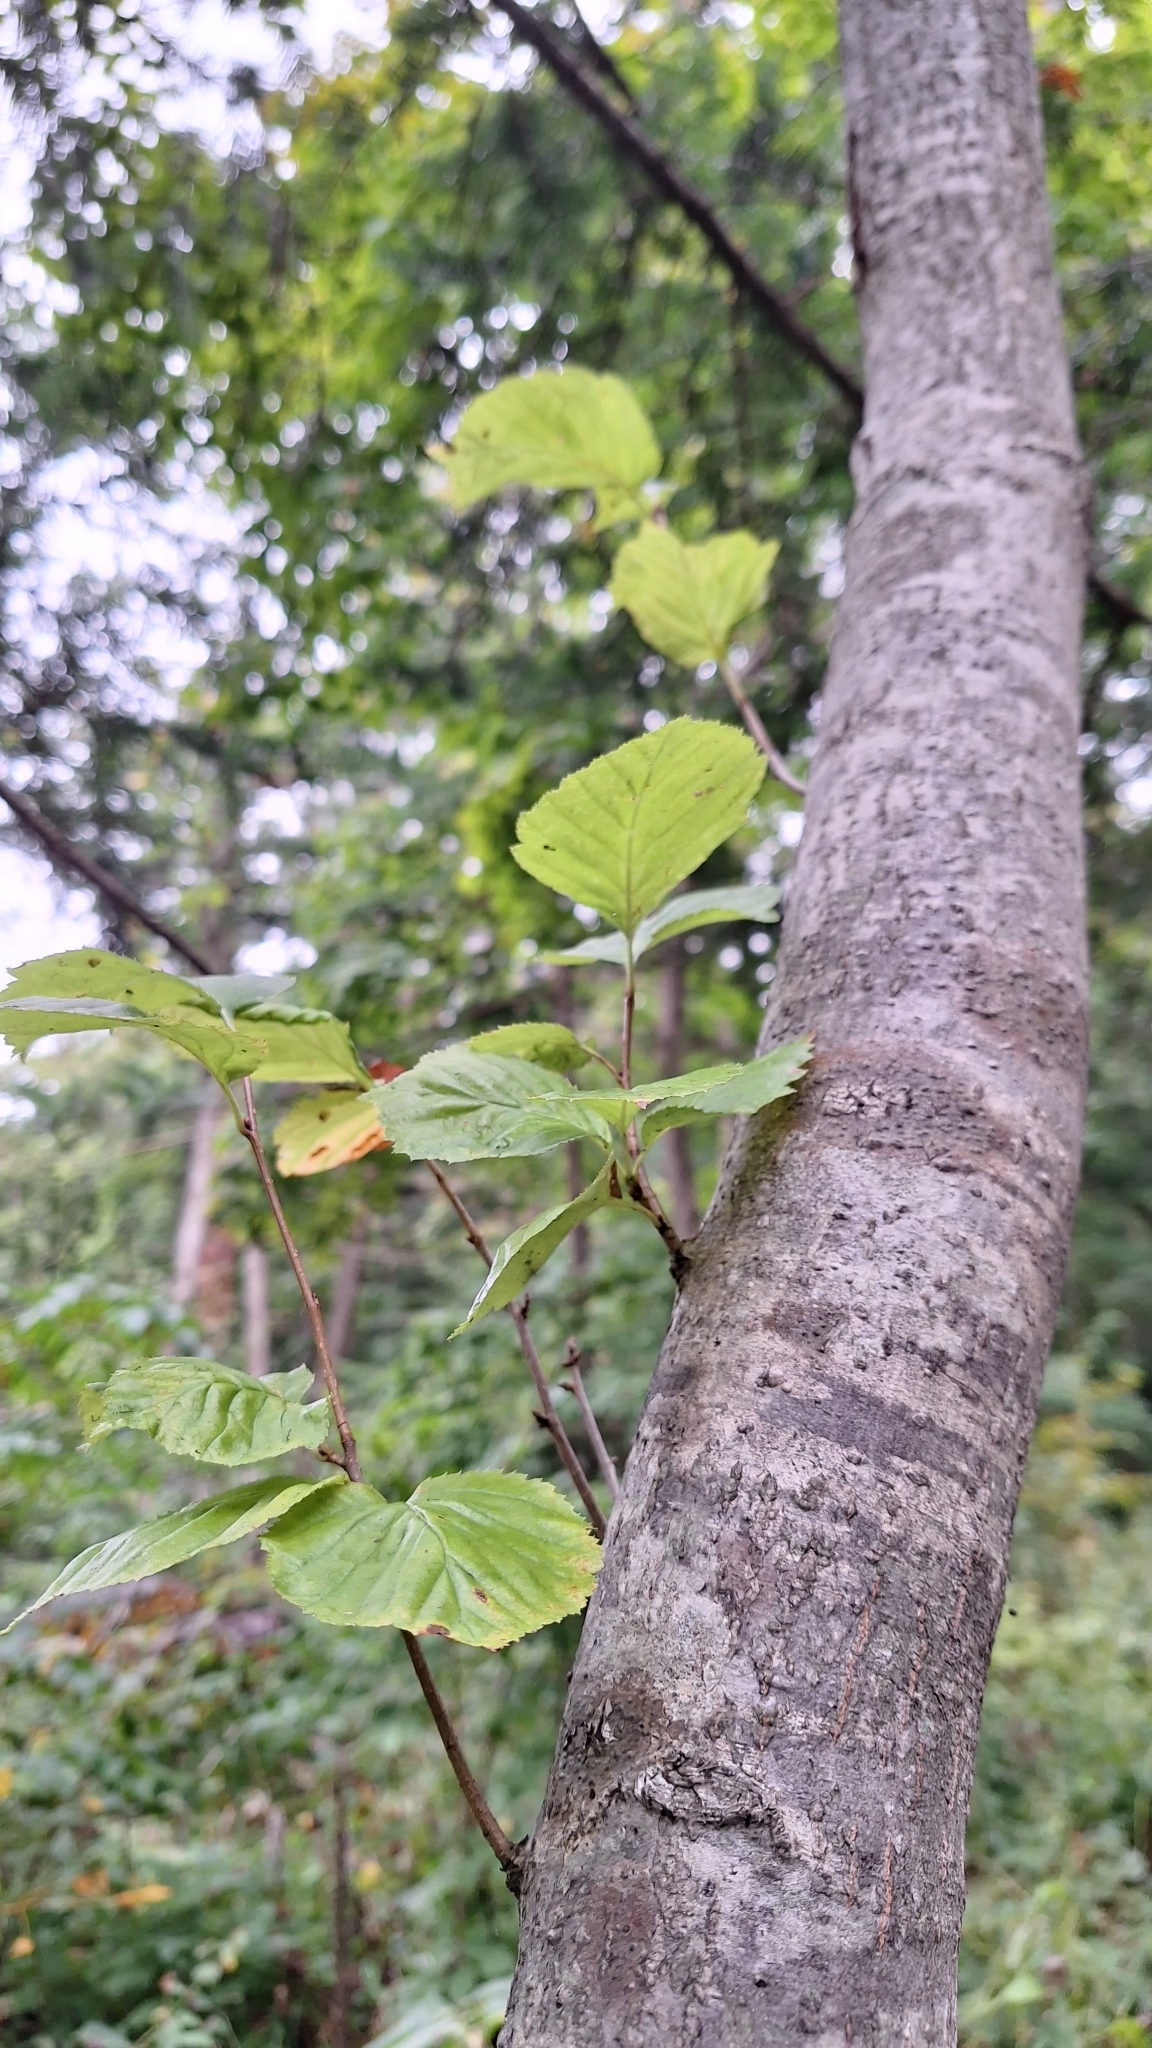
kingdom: Plantae
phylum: Tracheophyta
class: Magnoliopsida
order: Rosales
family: Rosaceae
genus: Sorbus
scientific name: Sorbus alnifolia
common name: Mountain-ash
